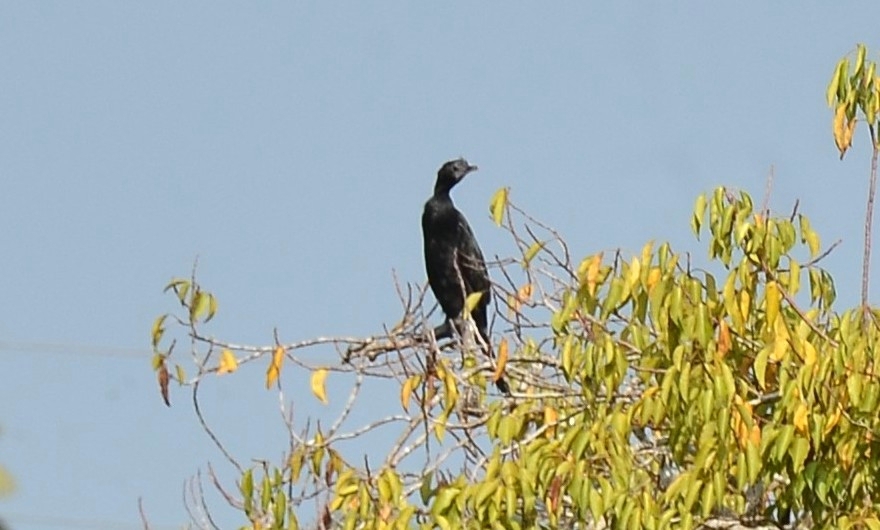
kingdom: Animalia
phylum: Chordata
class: Aves
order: Suliformes
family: Phalacrocoracidae
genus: Microcarbo
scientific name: Microcarbo niger
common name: Little cormorant
